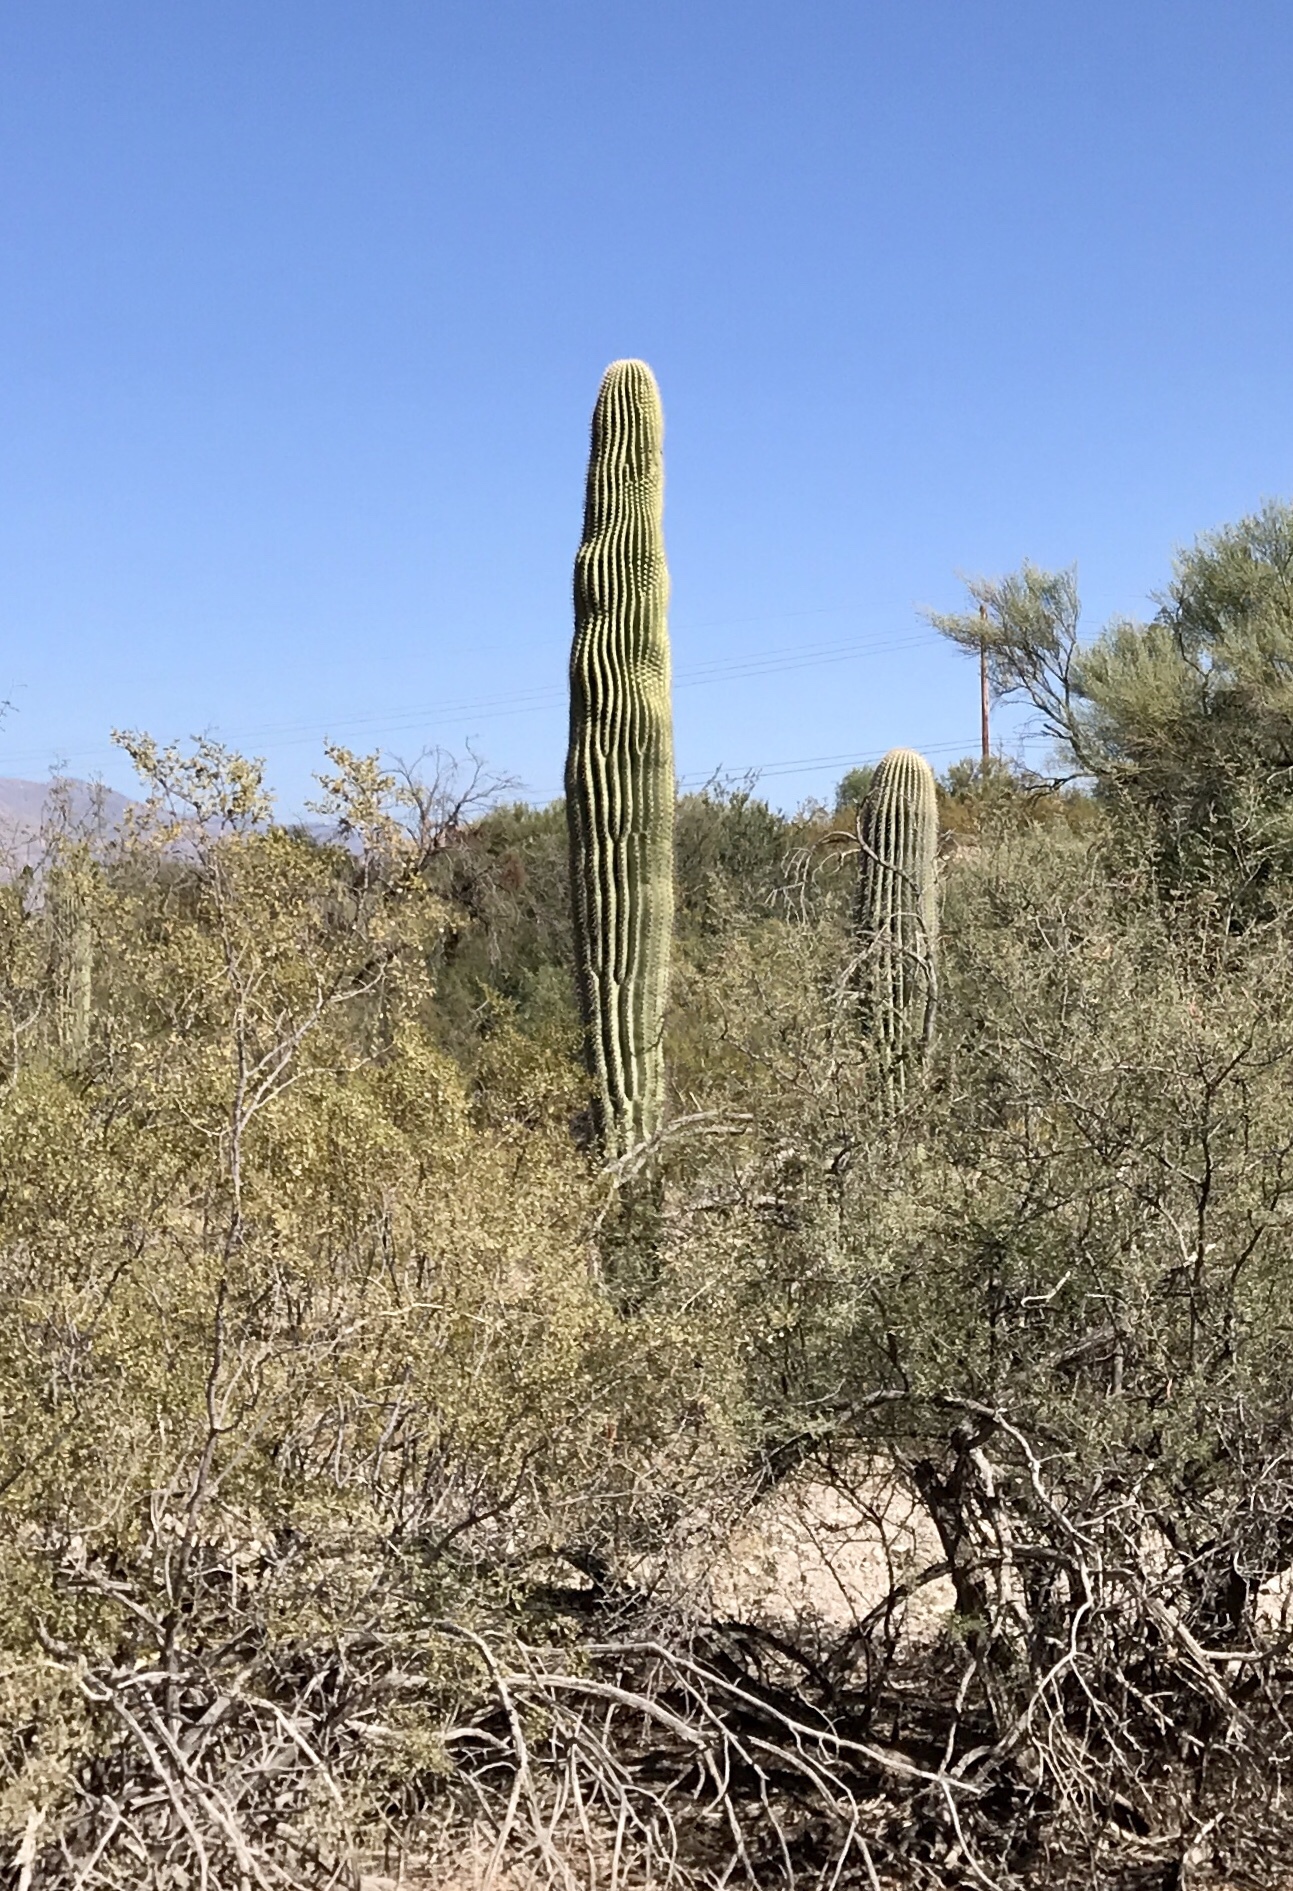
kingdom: Plantae
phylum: Tracheophyta
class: Magnoliopsida
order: Caryophyllales
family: Cactaceae
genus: Carnegiea
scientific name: Carnegiea gigantea
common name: Saguaro
